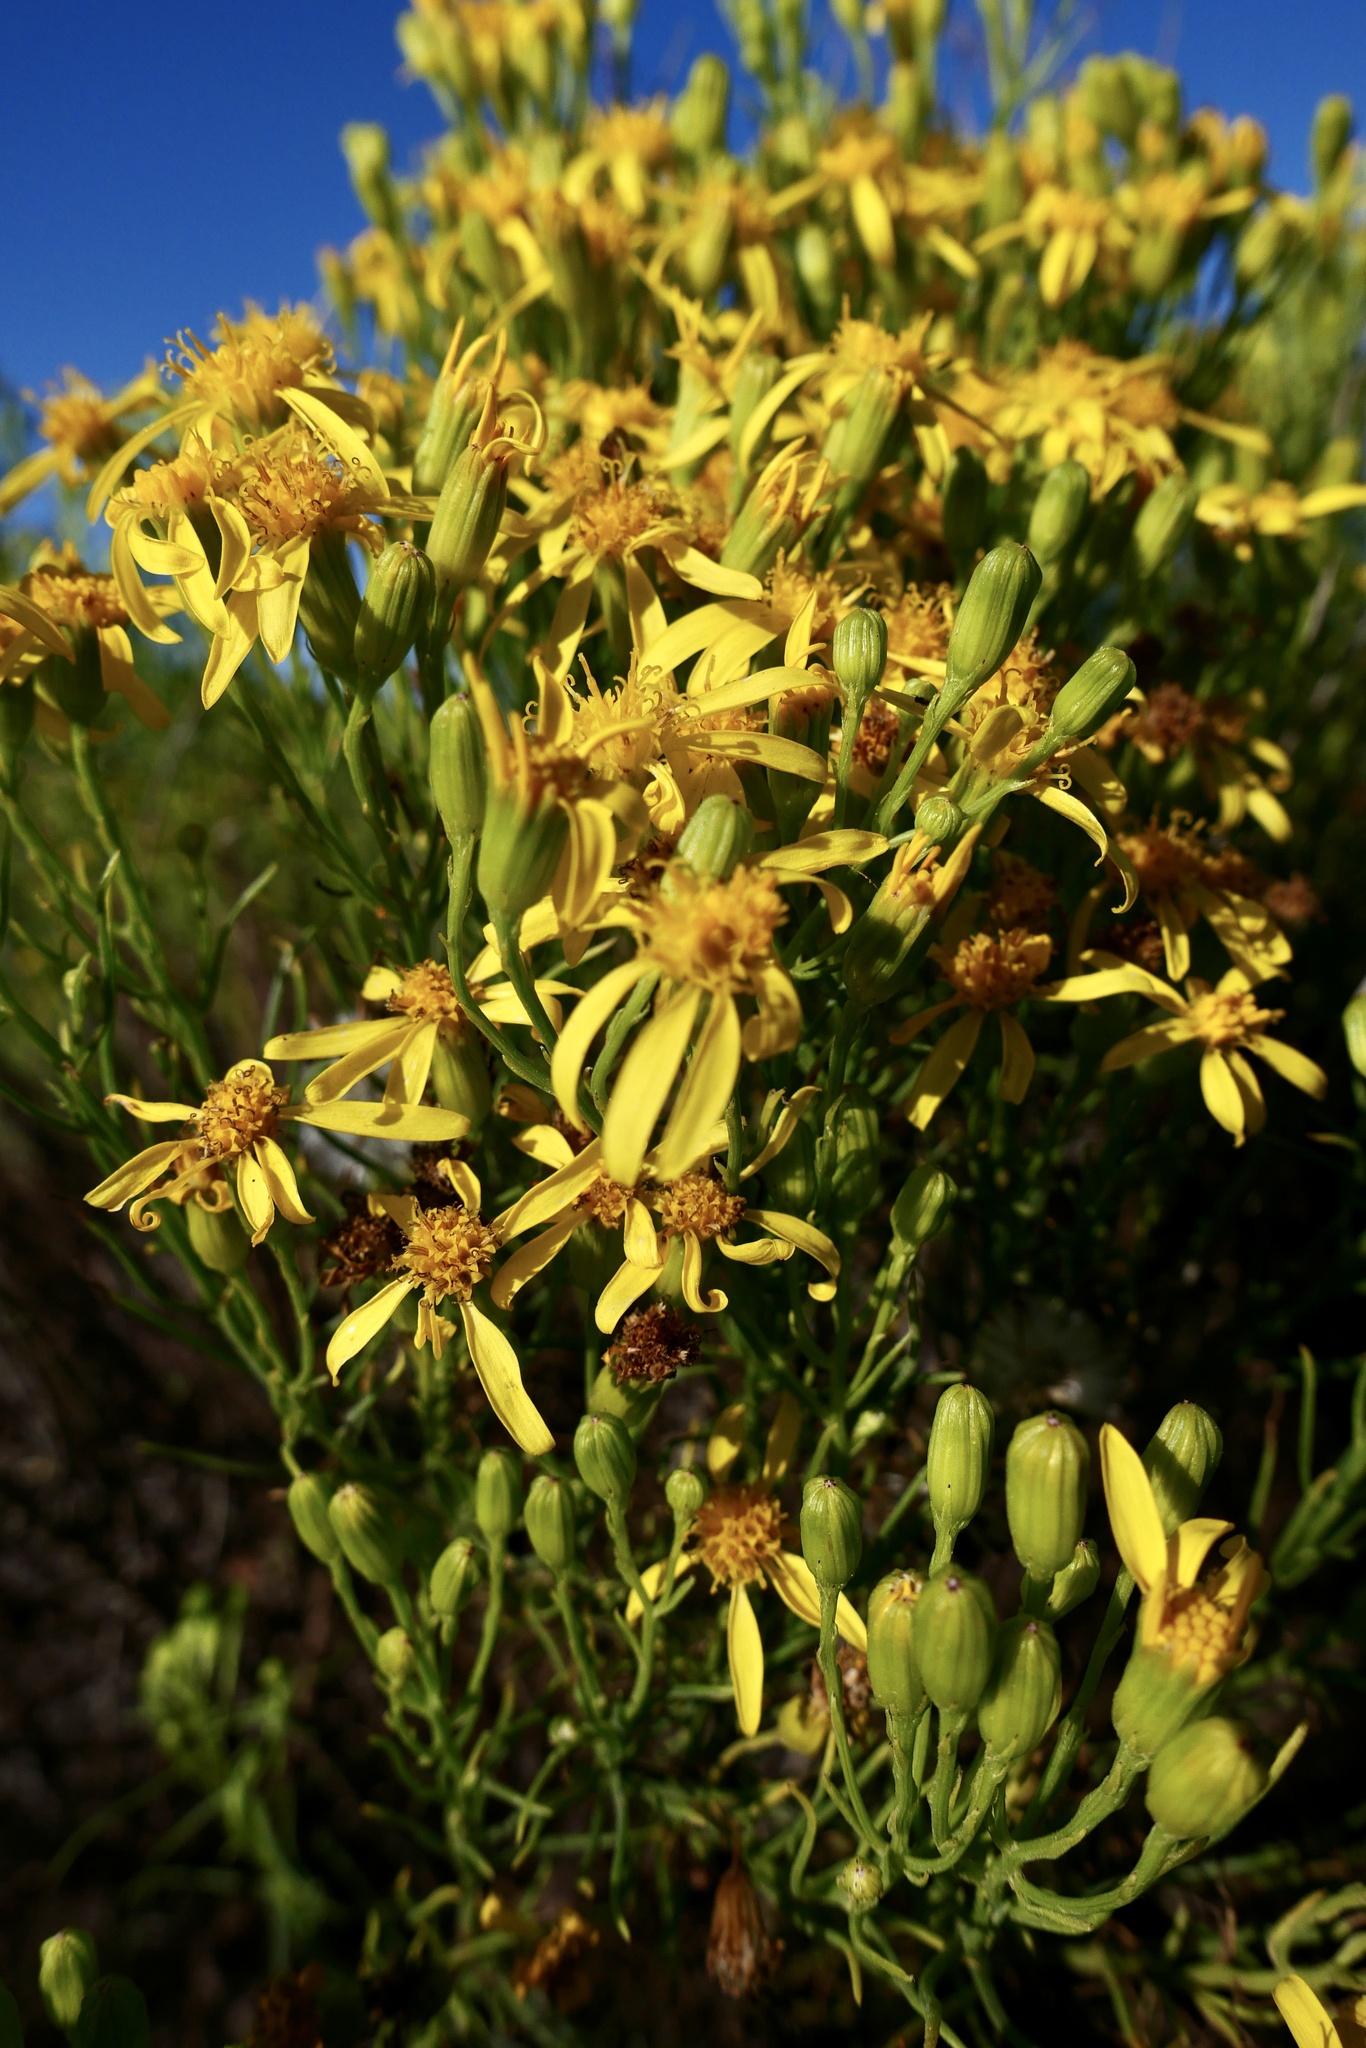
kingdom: Plantae
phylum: Tracheophyta
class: Magnoliopsida
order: Asterales
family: Asteraceae
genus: Senecio
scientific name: Senecio blochmaniae
